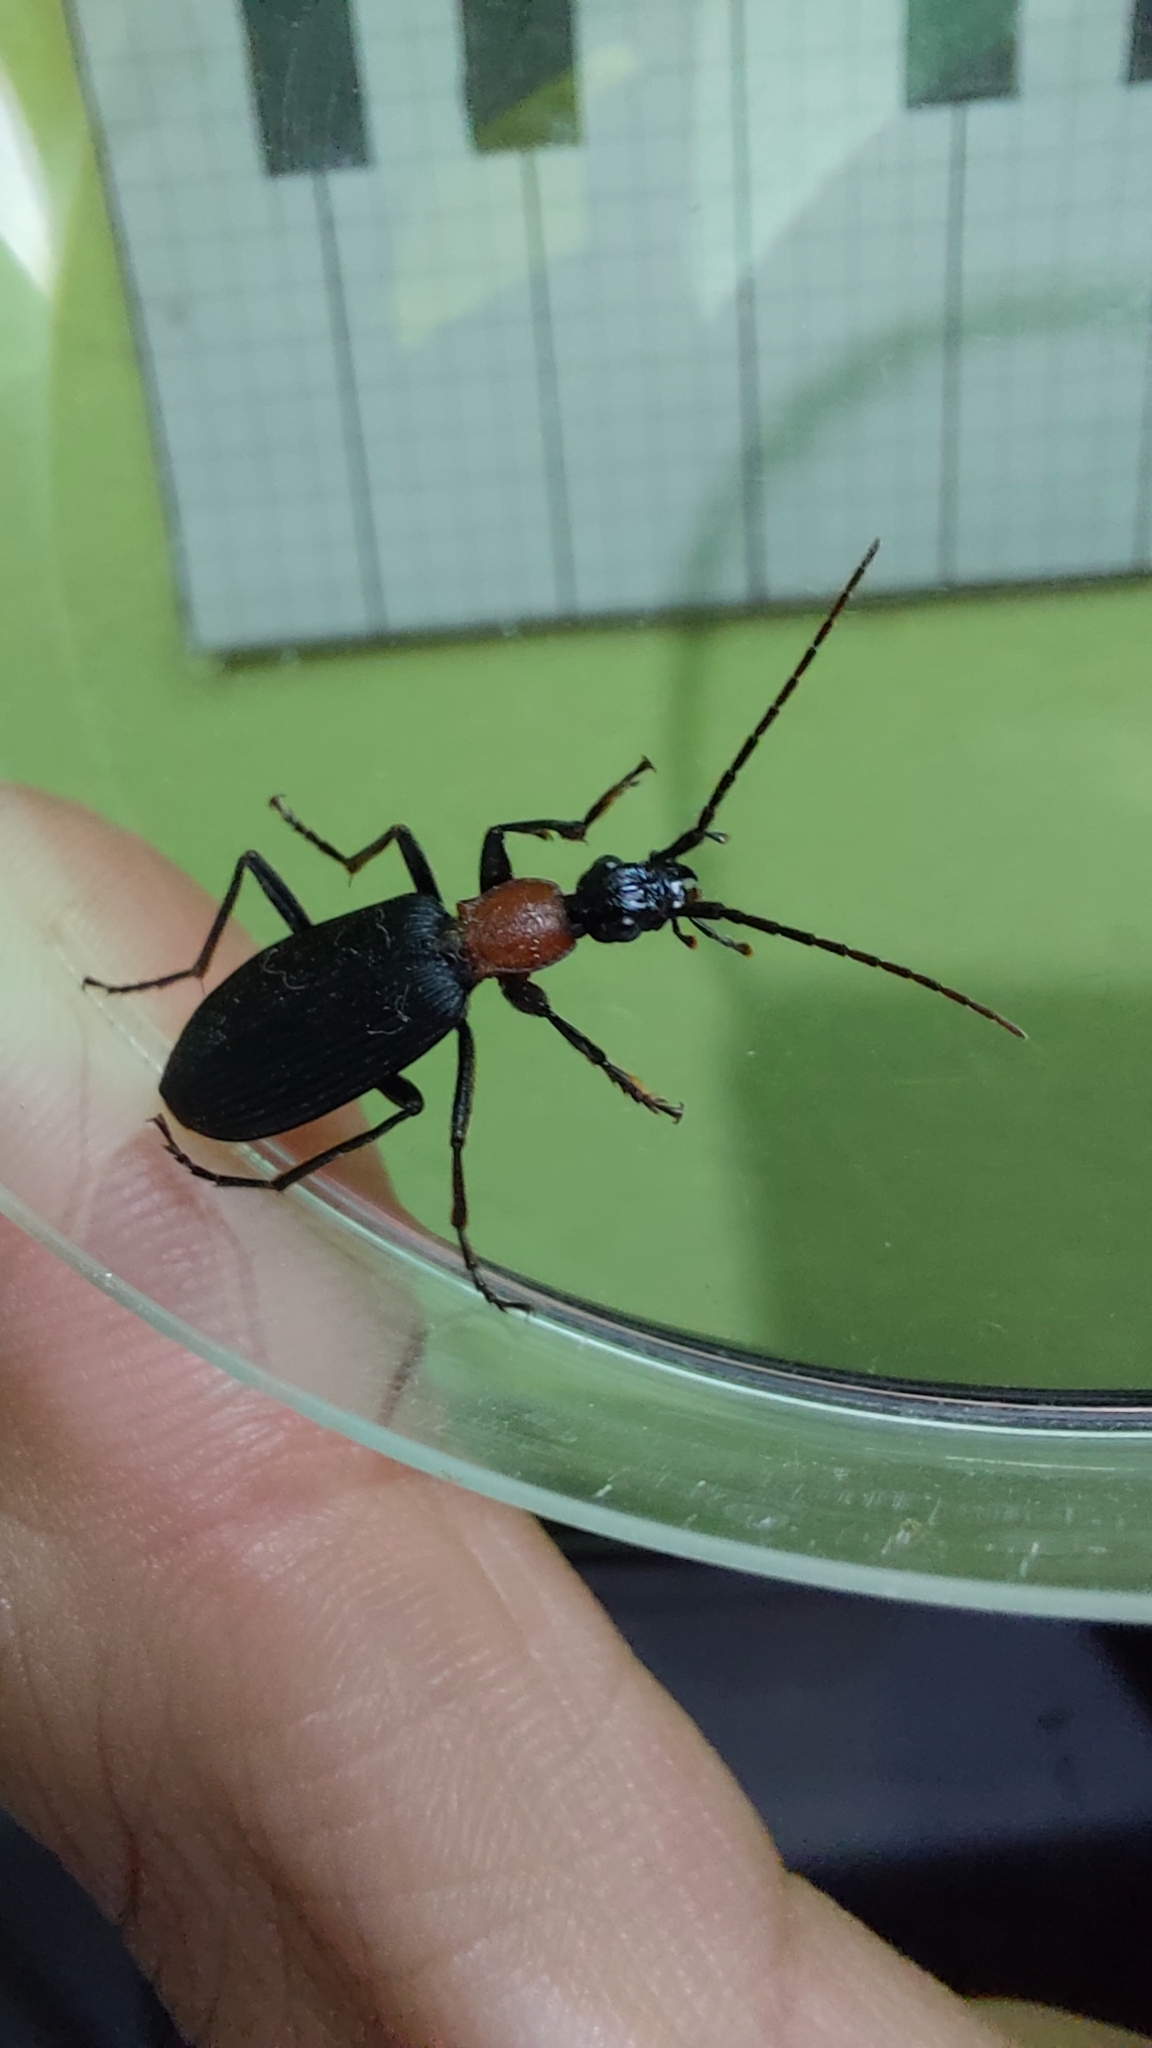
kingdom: Animalia
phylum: Arthropoda
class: Insecta
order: Coleoptera
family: Carabidae
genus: Galerita
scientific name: Galerita collaris
